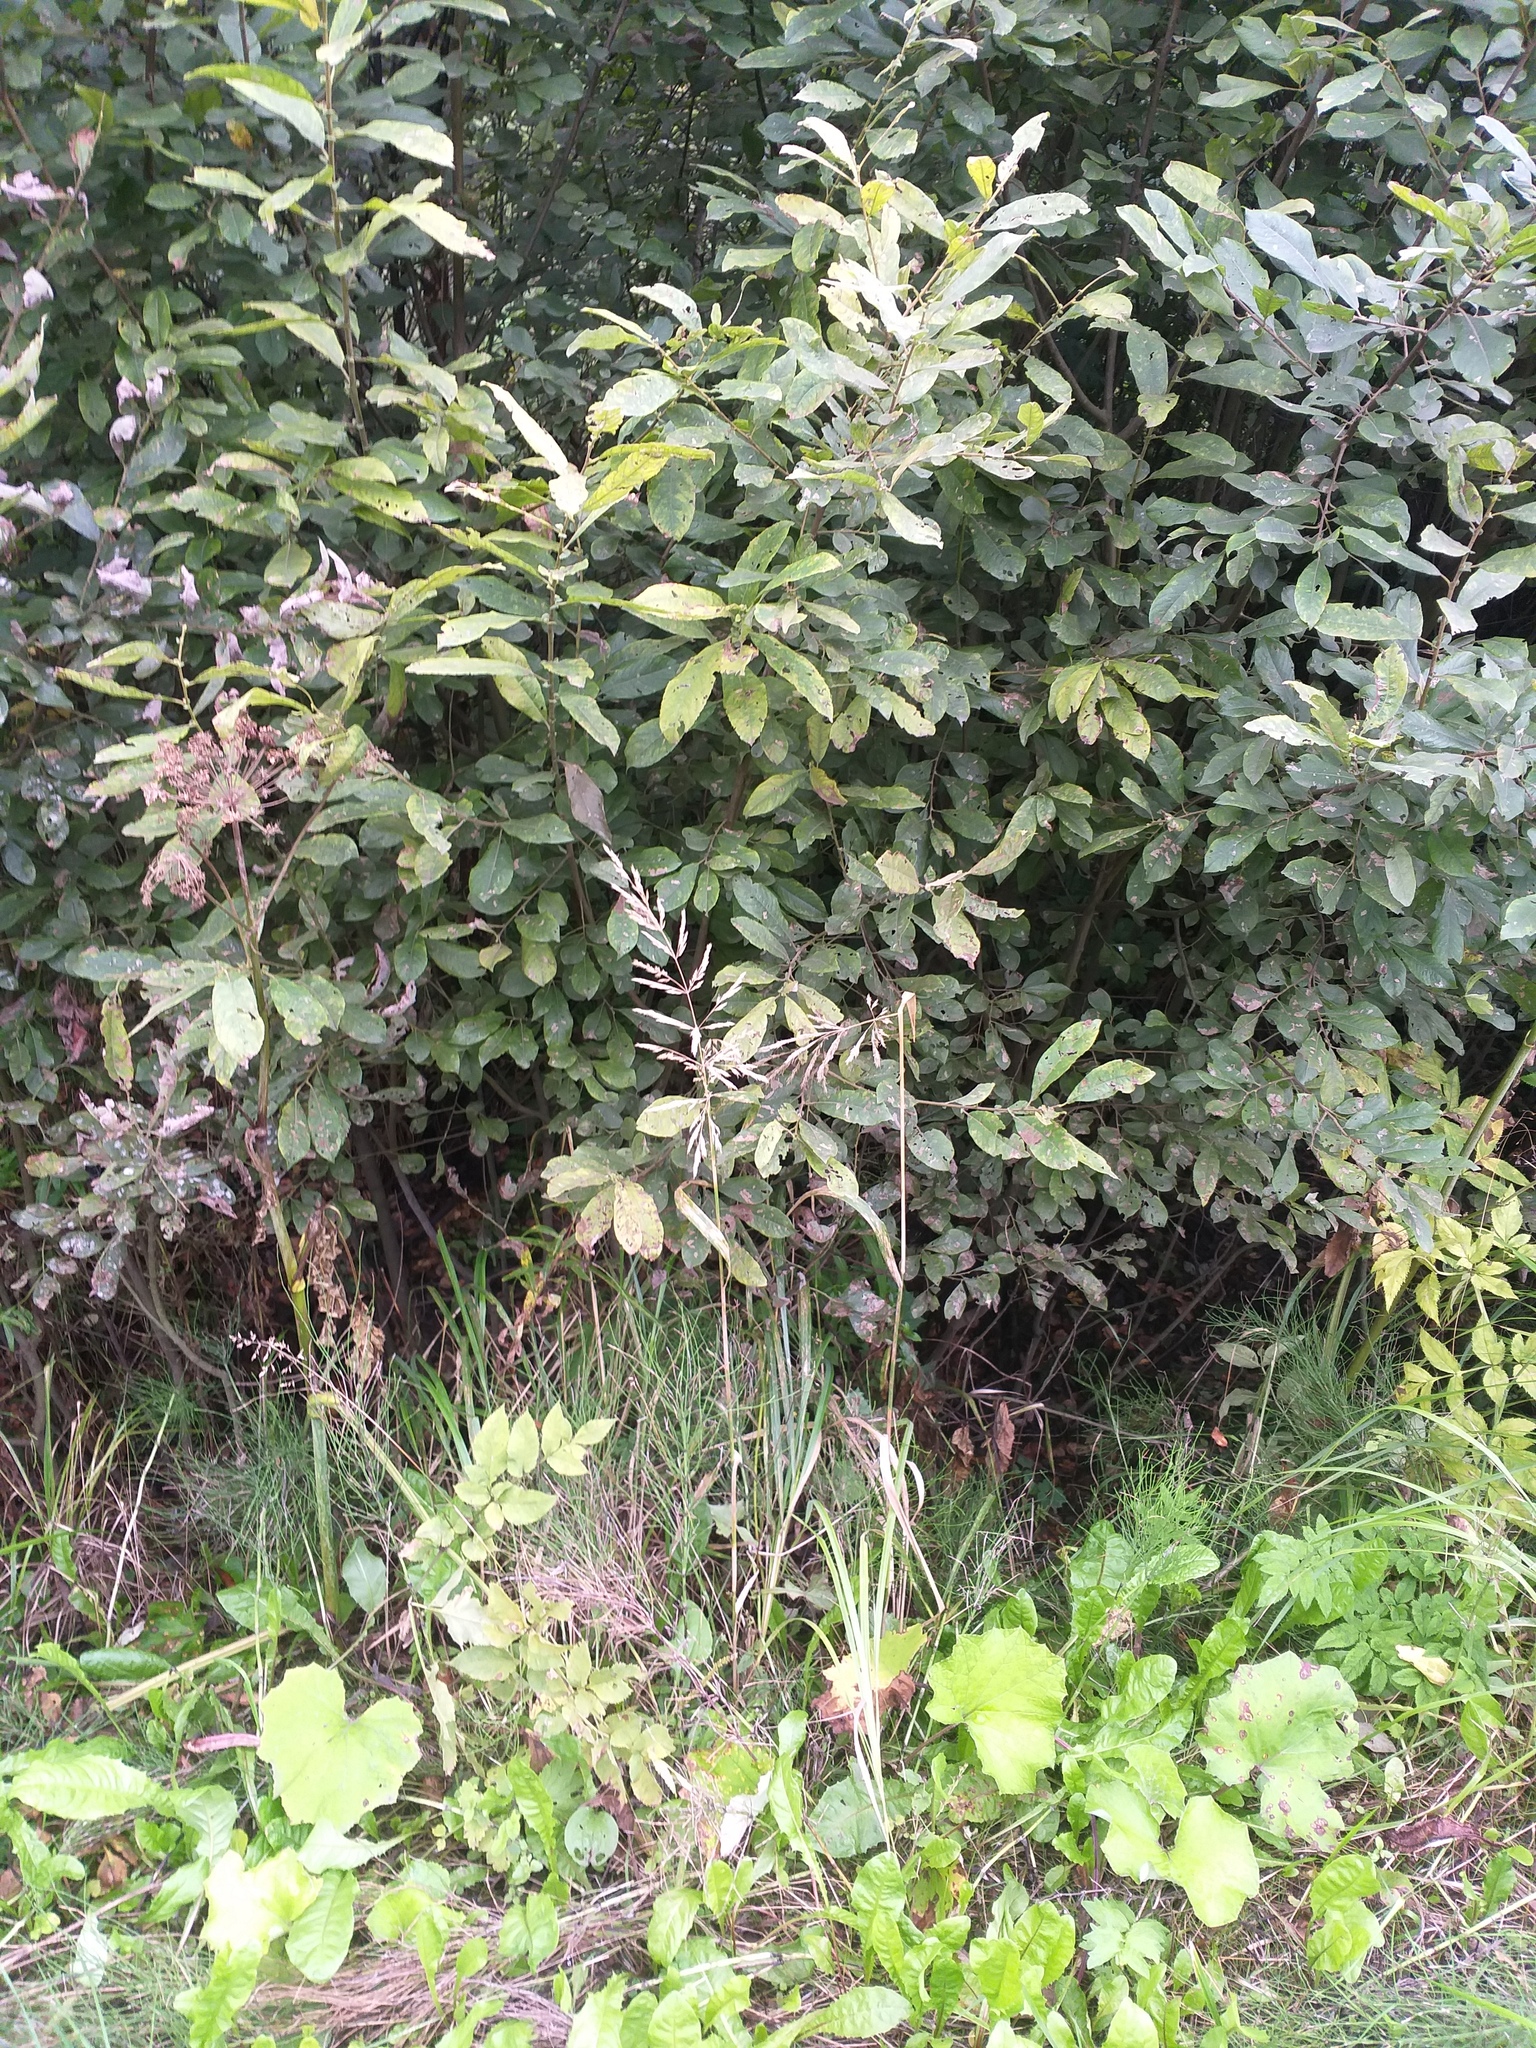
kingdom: Plantae
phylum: Tracheophyta
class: Magnoliopsida
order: Malpighiales
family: Salicaceae
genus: Salix
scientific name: Salix cinerea
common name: Common sallow
